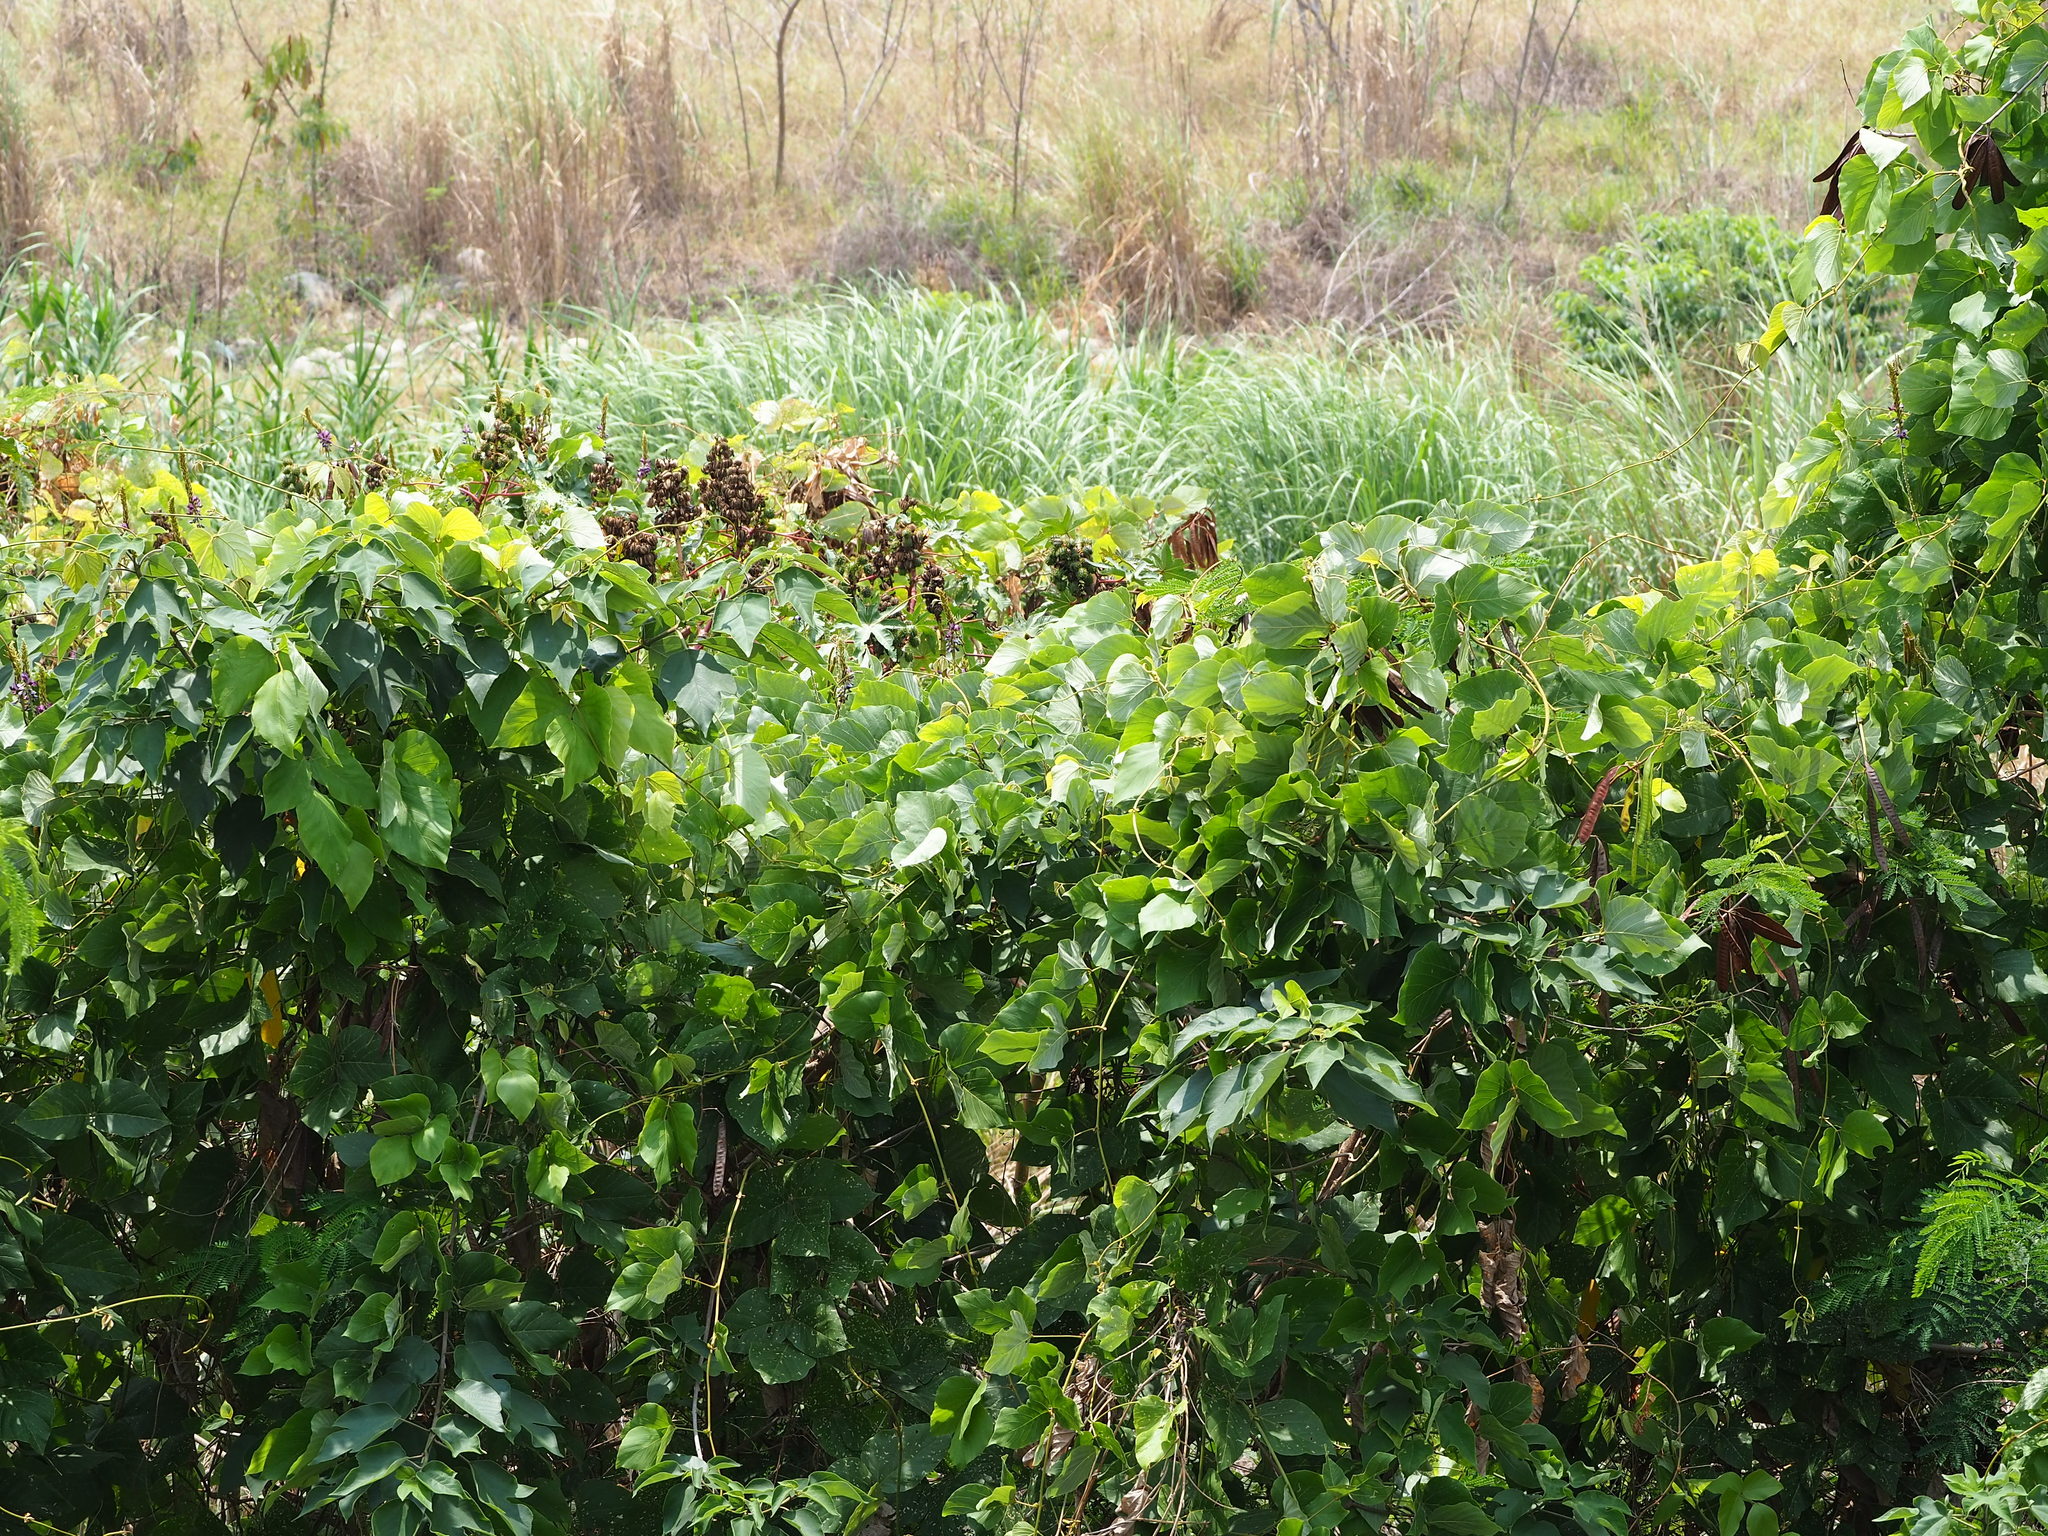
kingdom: Plantae
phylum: Tracheophyta
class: Magnoliopsida
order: Fabales
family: Fabaceae
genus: Pueraria
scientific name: Pueraria montana
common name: Kudzu
